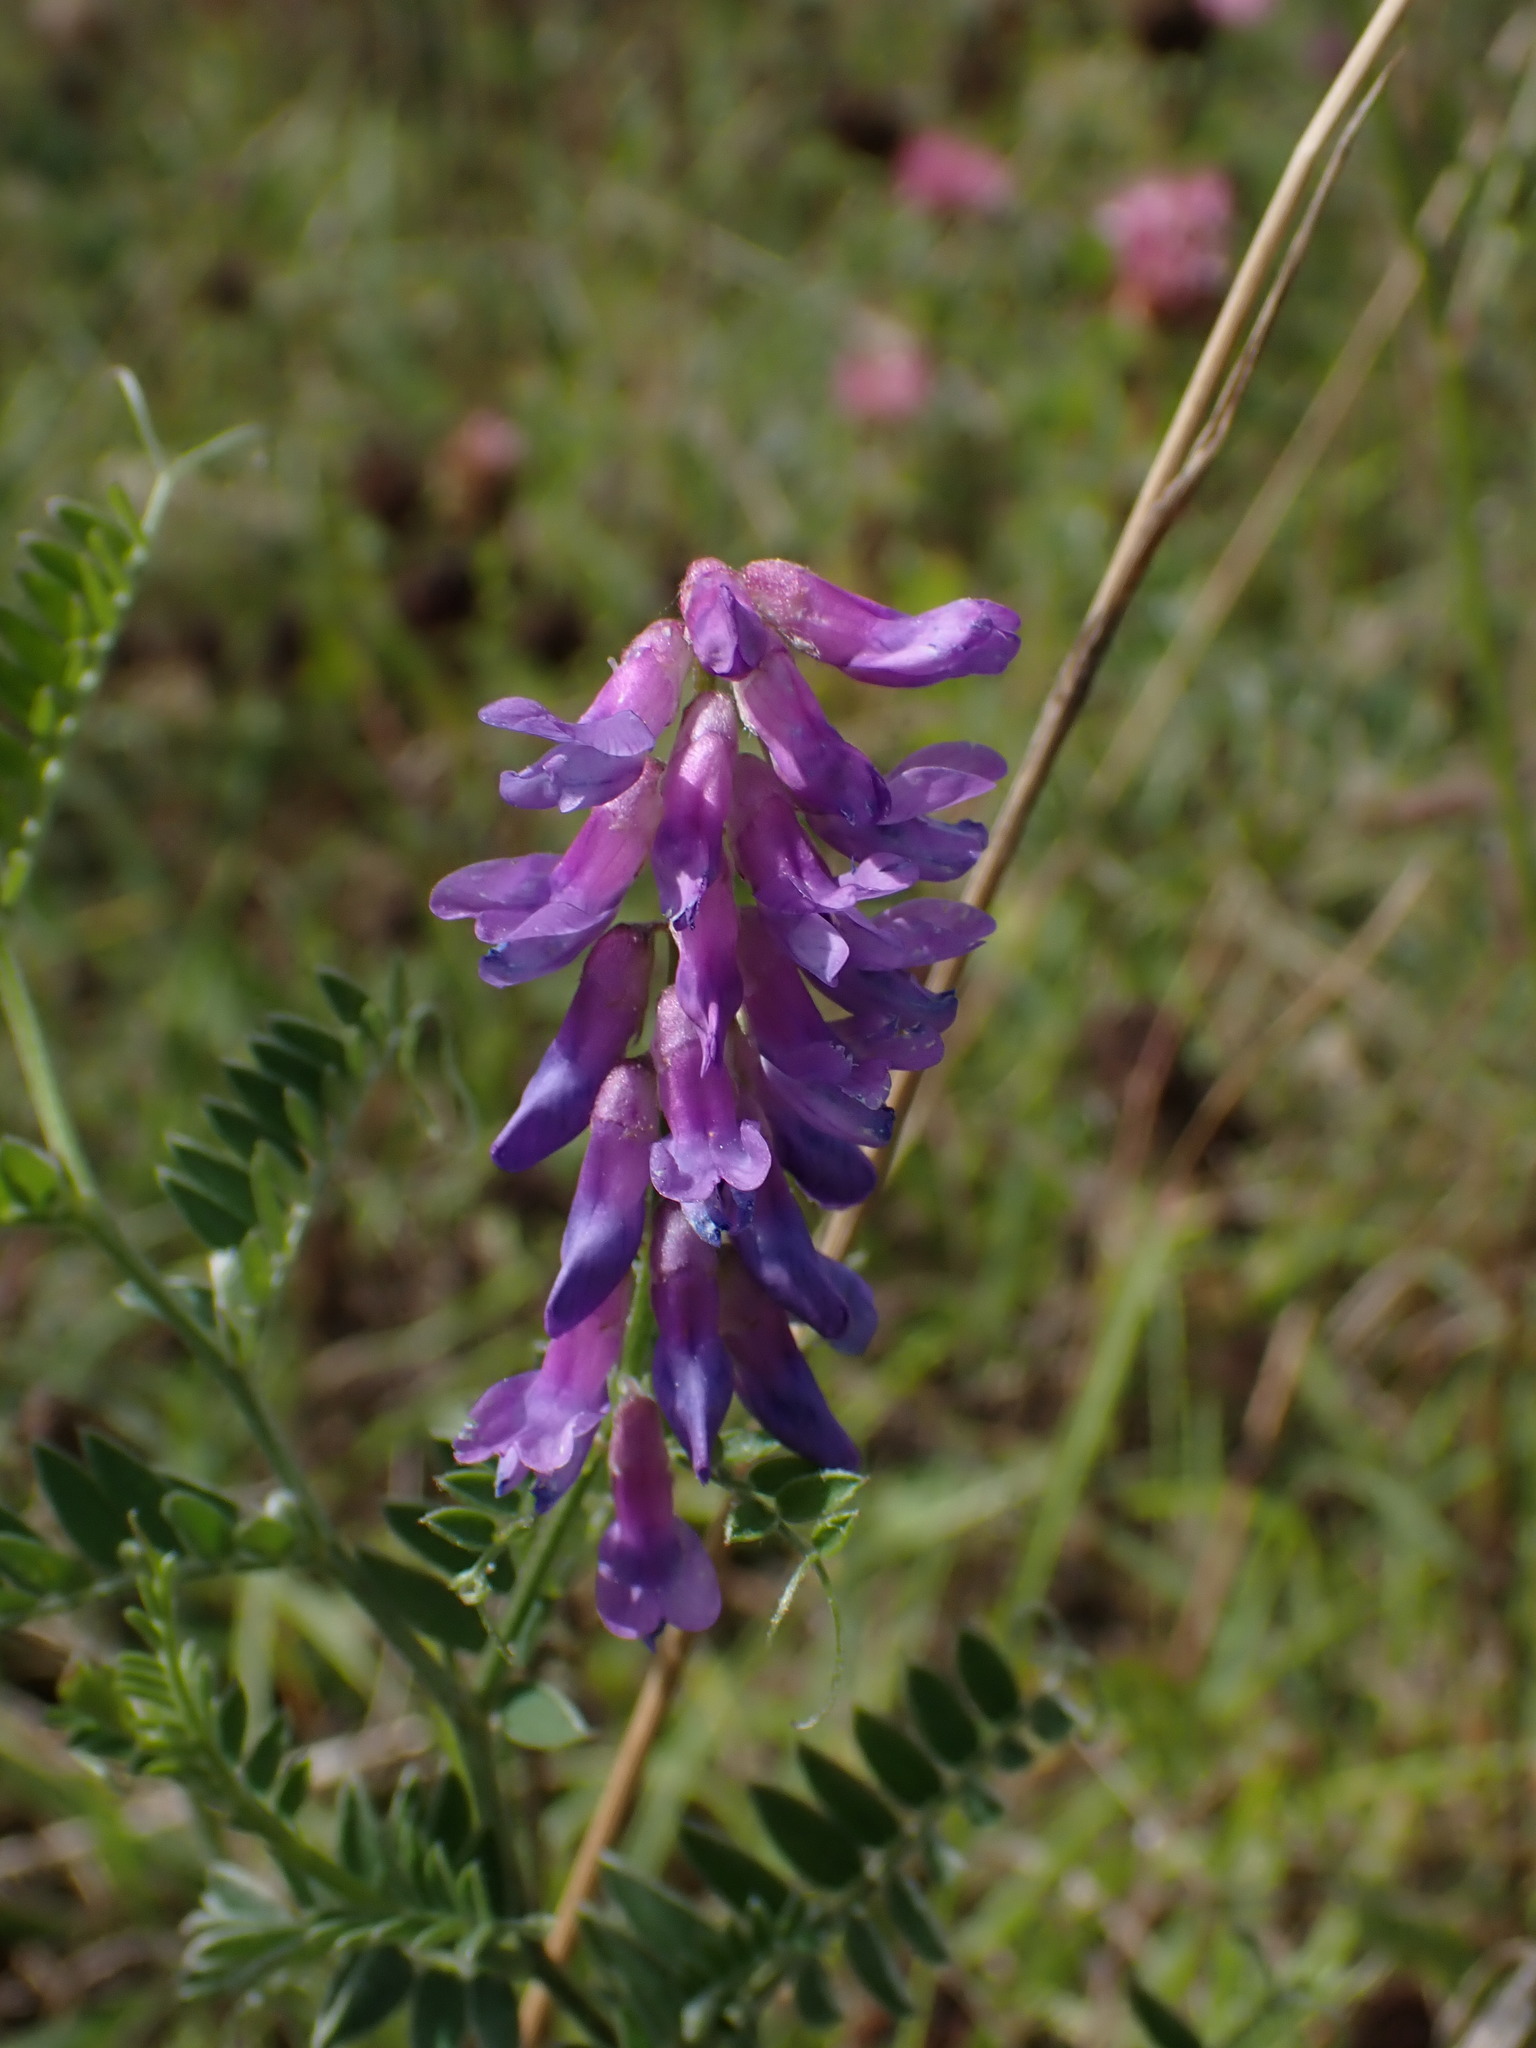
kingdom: Plantae
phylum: Tracheophyta
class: Magnoliopsida
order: Fabales
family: Fabaceae
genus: Vicia
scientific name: Vicia cracca
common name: Bird vetch
